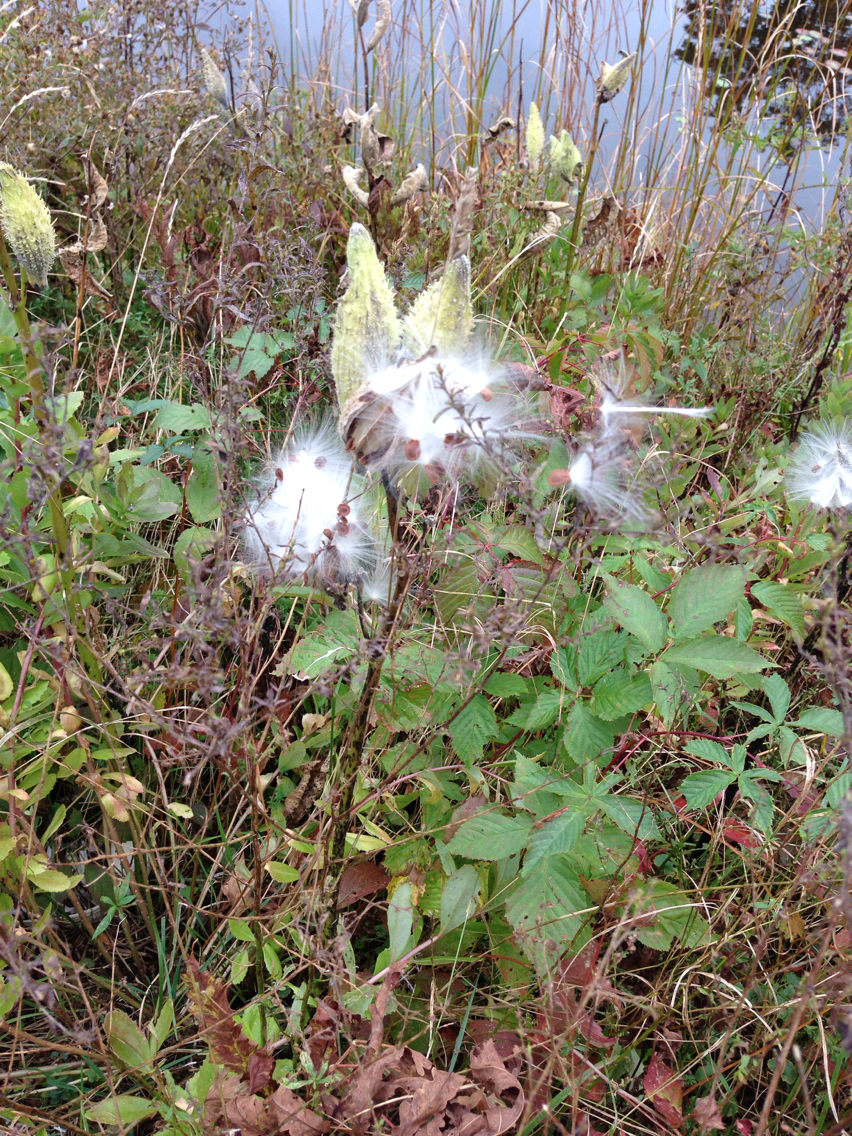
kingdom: Plantae
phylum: Tracheophyta
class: Magnoliopsida
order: Gentianales
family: Apocynaceae
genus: Asclepias
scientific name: Asclepias syriaca
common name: Common milkweed
